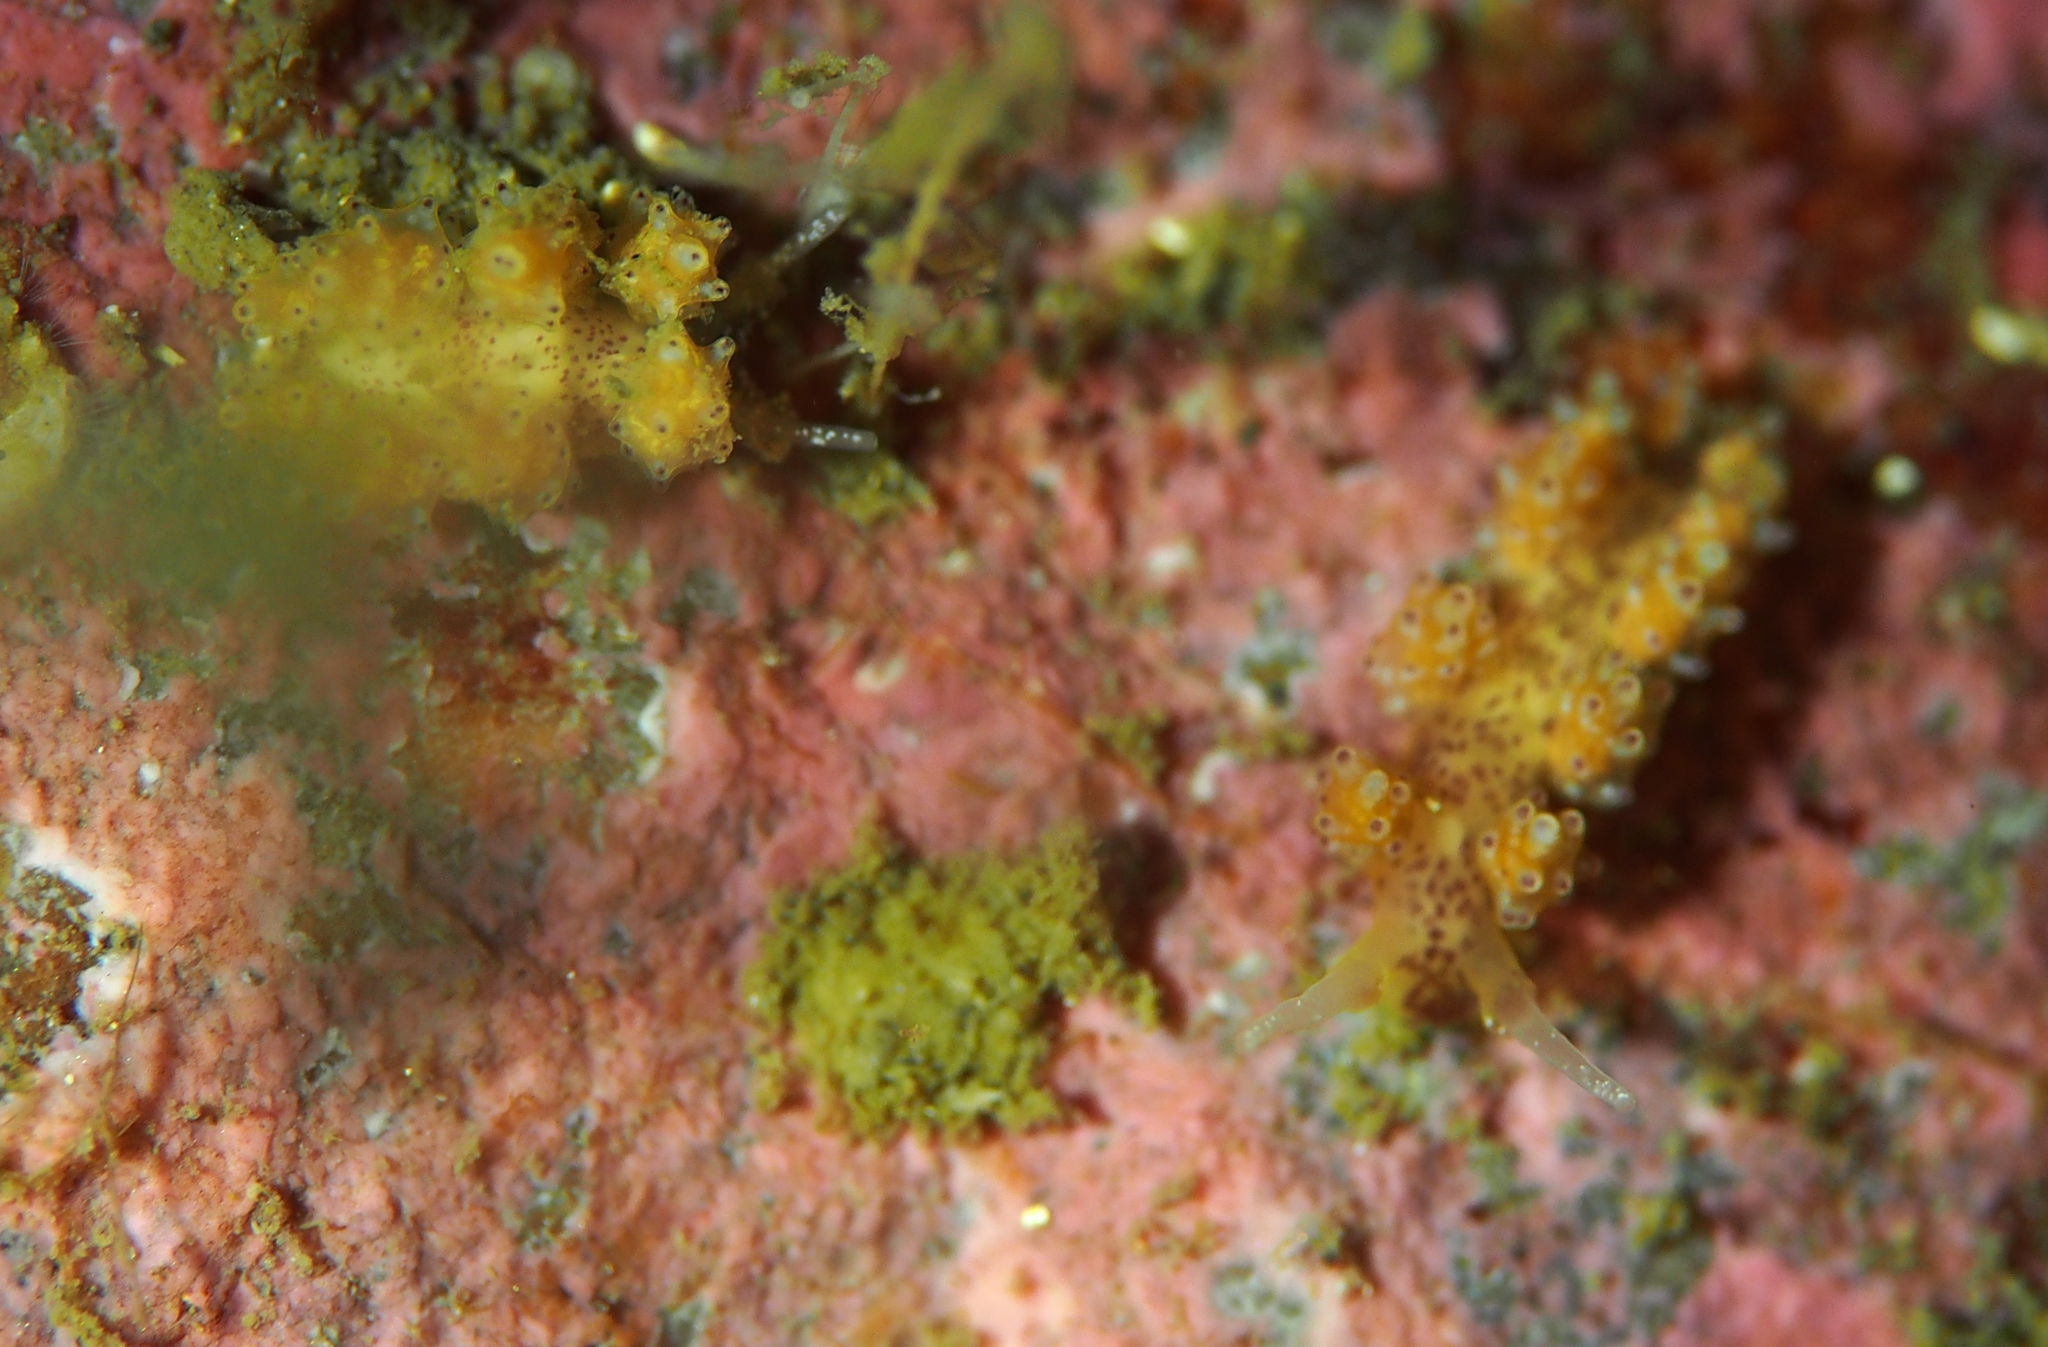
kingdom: Animalia
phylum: Mollusca
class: Gastropoda
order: Nudibranchia
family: Dotidae
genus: Doto
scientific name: Doto dunnei
